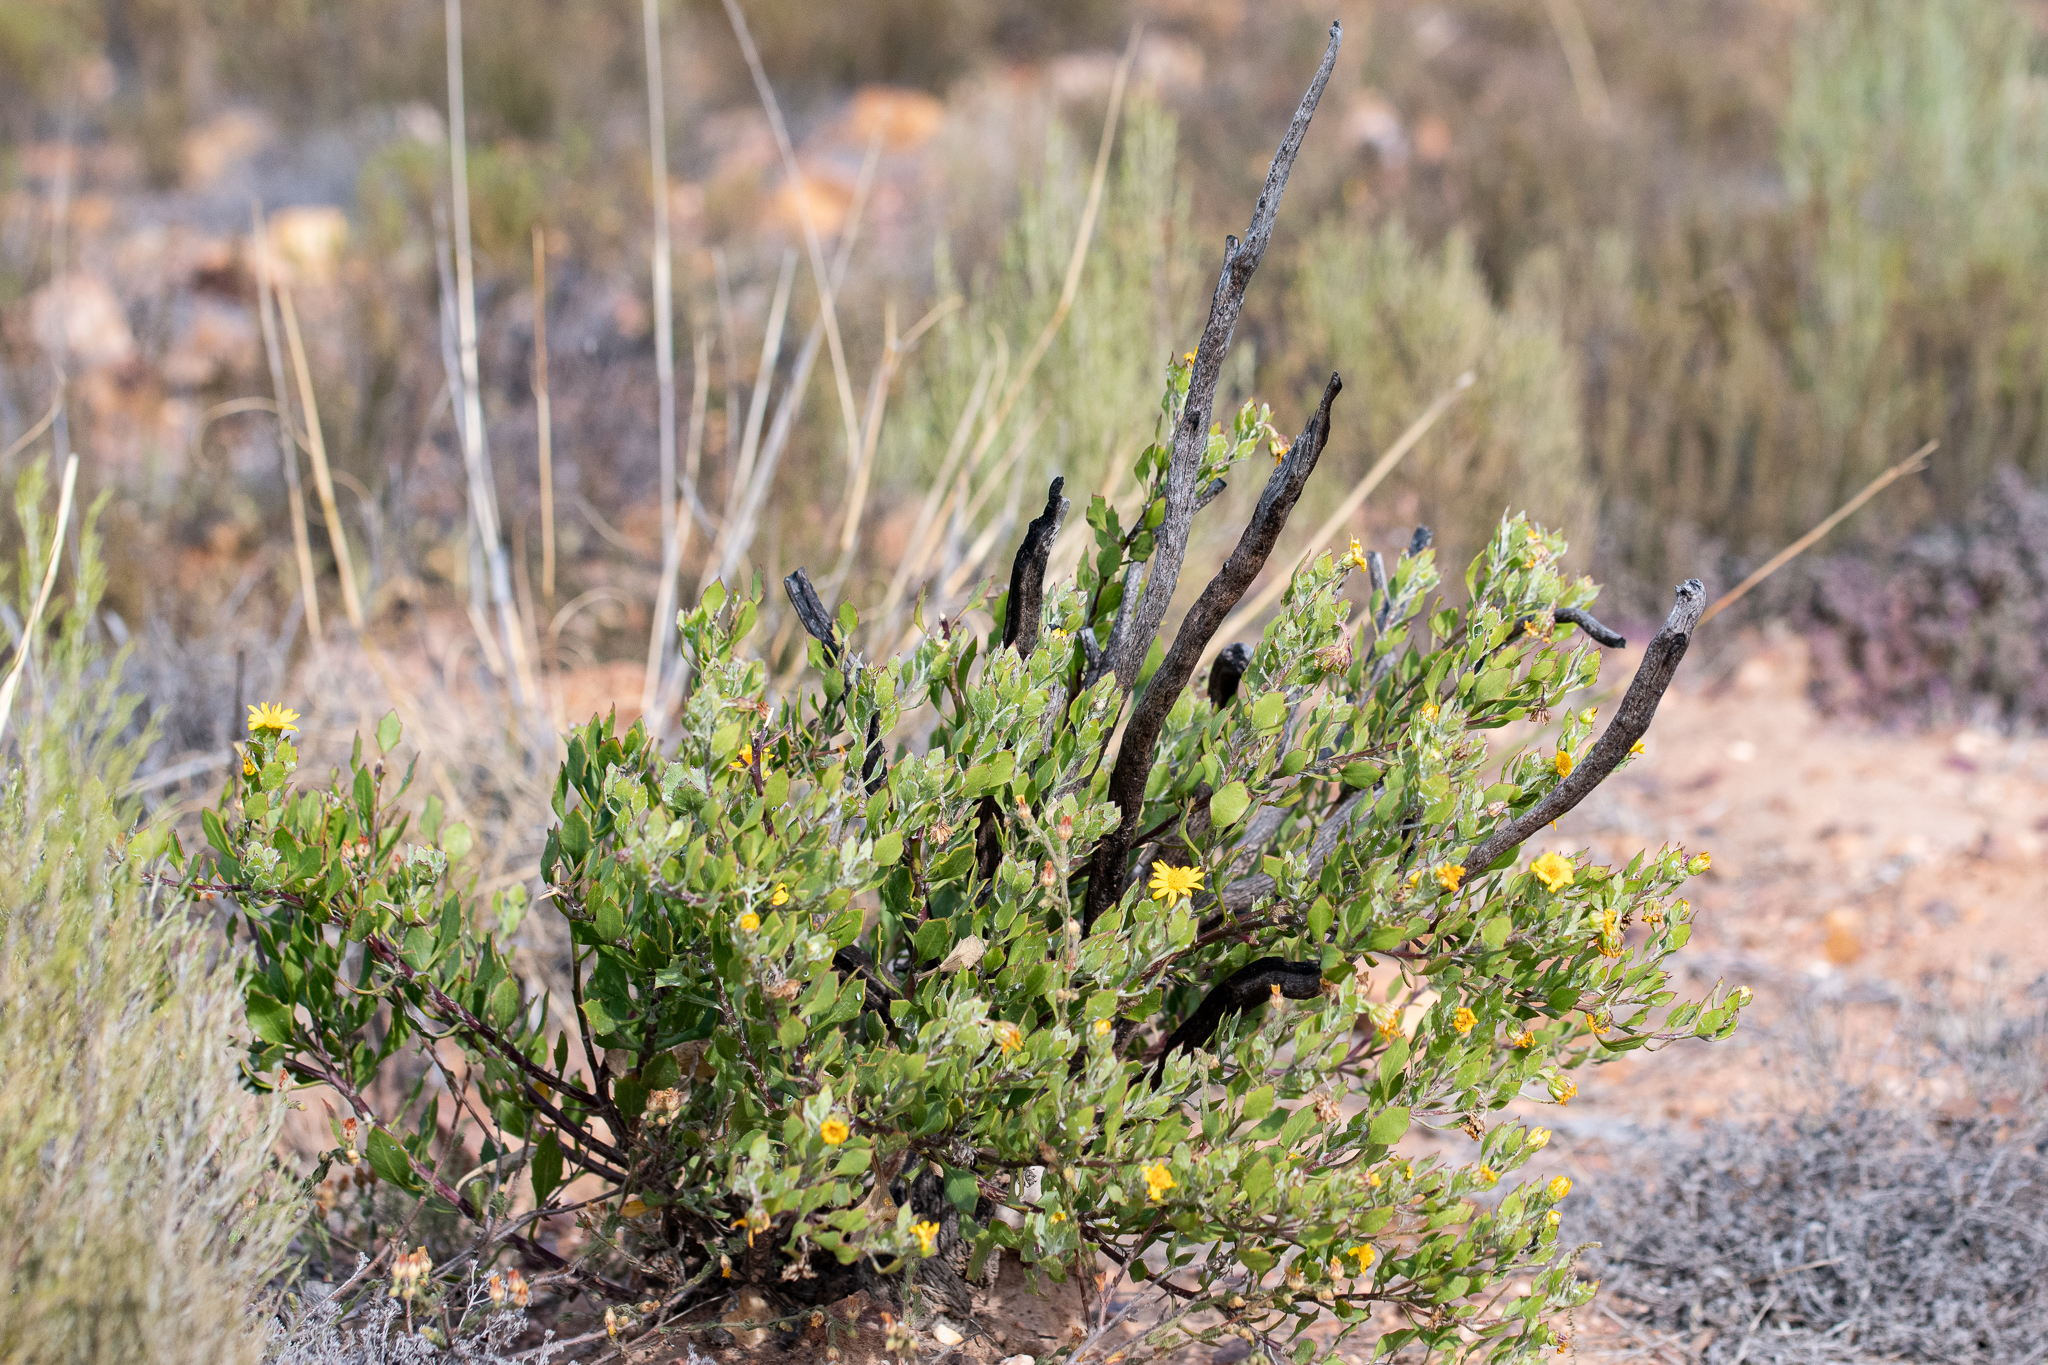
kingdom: Plantae
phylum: Tracheophyta
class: Magnoliopsida
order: Asterales
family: Asteraceae
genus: Osteospermum
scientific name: Osteospermum moniliferum
